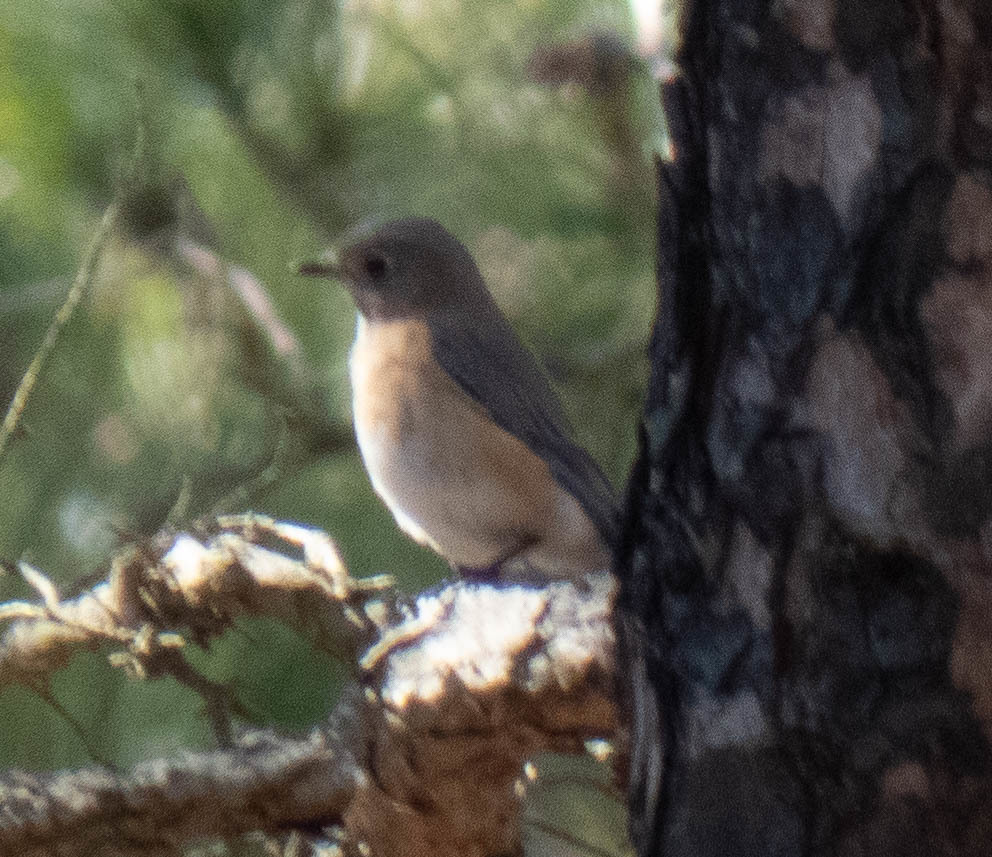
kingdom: Animalia
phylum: Chordata
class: Aves
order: Passeriformes
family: Turdidae
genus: Sialia
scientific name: Sialia sialis
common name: Eastern bluebird
